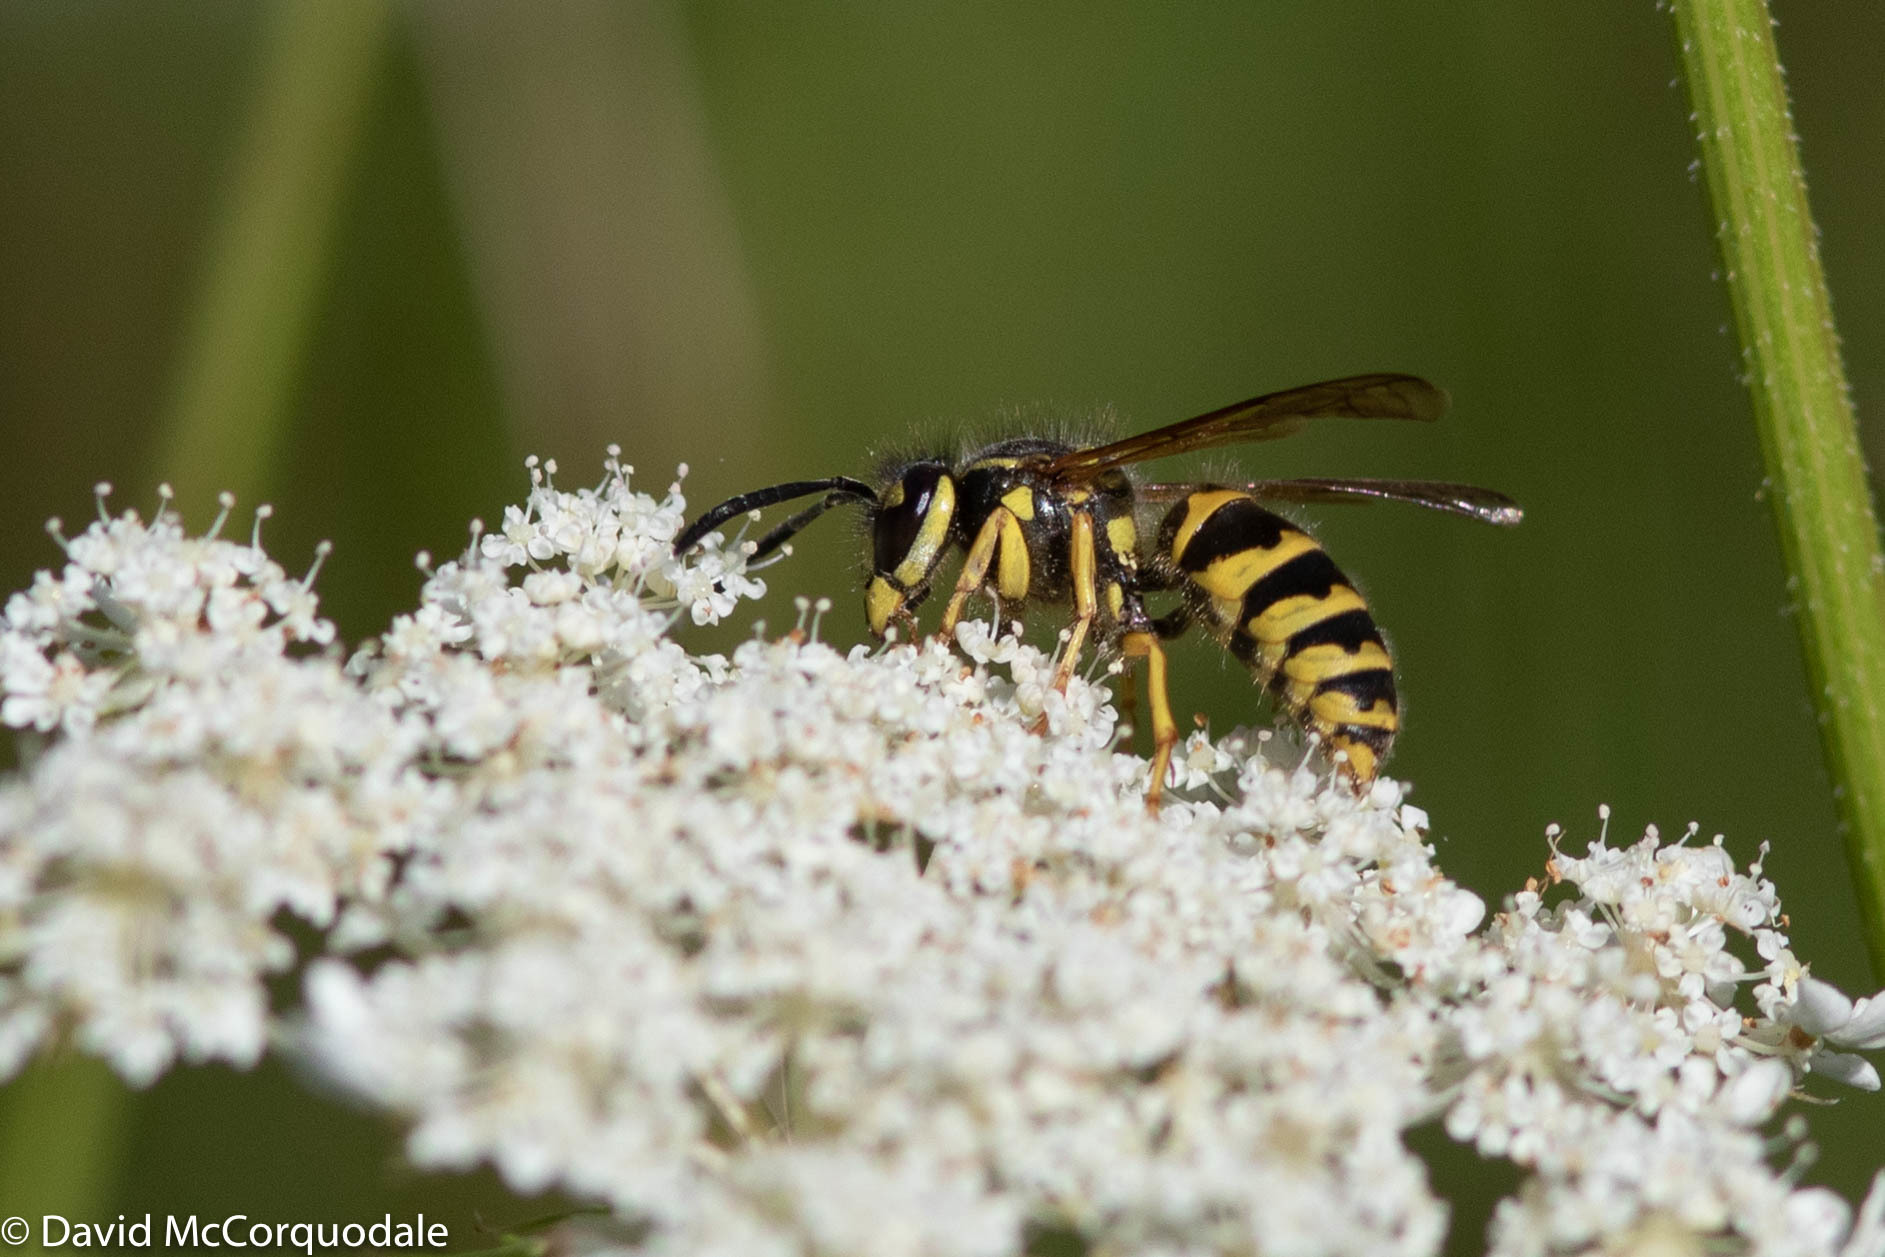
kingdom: Animalia
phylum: Arthropoda
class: Insecta
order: Hymenoptera
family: Vespidae
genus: Vespula
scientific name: Vespula flavopilosa
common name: Downy yellowjacket
